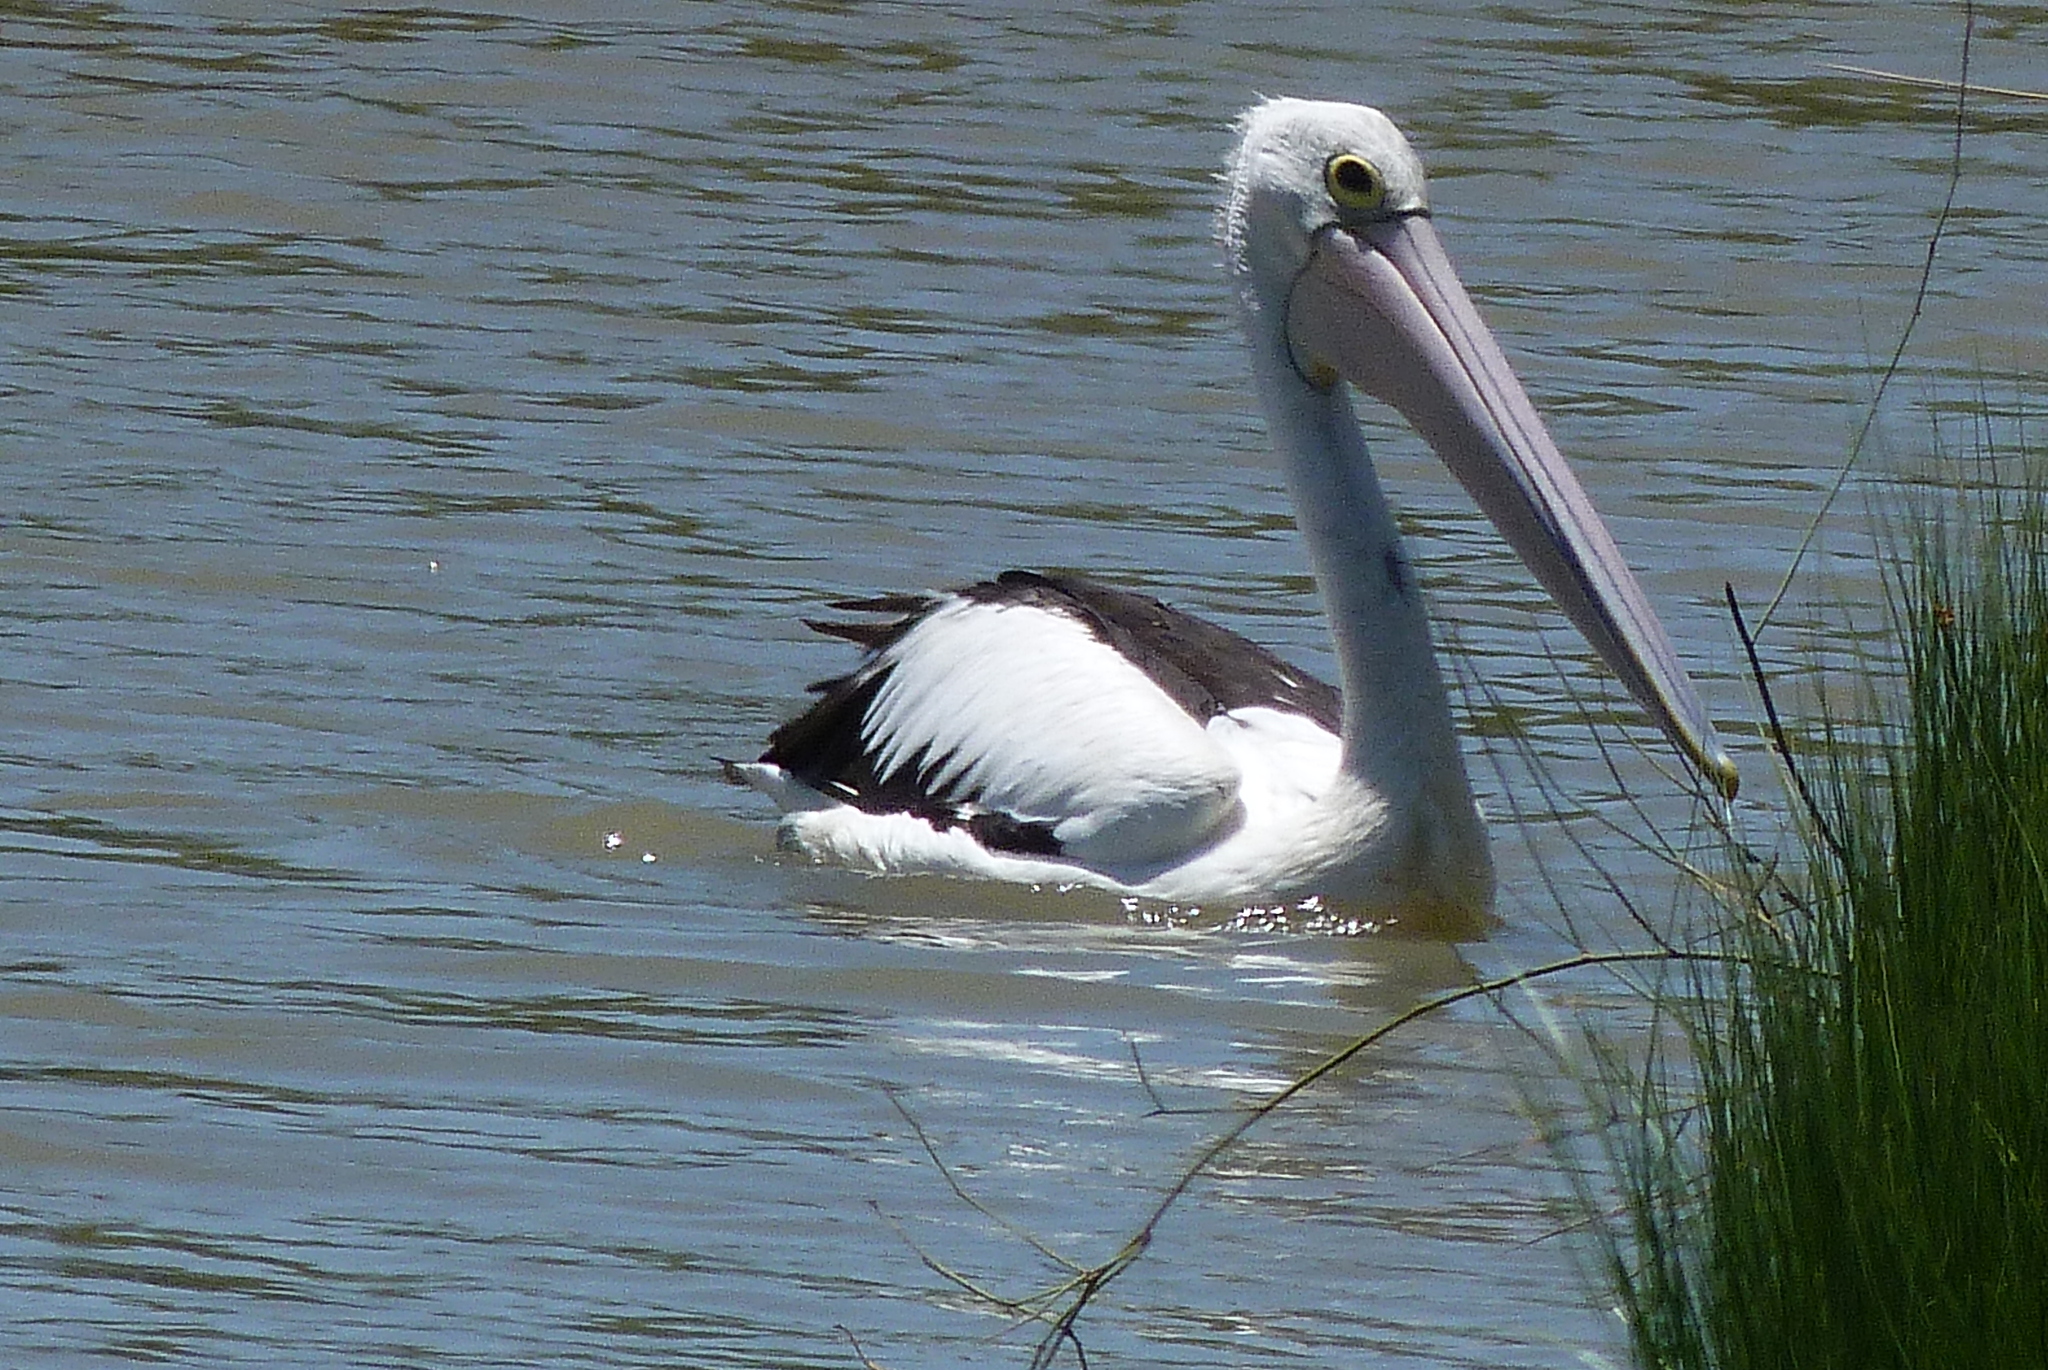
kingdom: Animalia
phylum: Chordata
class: Aves
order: Pelecaniformes
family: Pelecanidae
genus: Pelecanus
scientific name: Pelecanus conspicillatus
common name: Australian pelican
